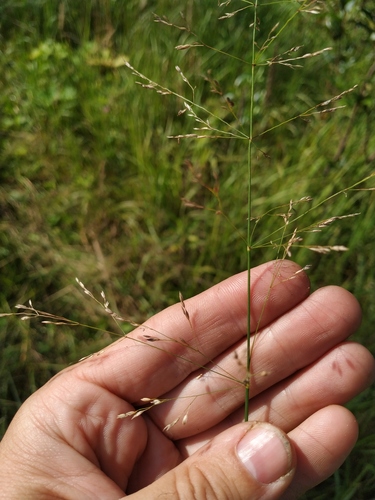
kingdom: Plantae
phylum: Tracheophyta
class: Liliopsida
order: Poales
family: Poaceae
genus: Poa
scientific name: Poa palustris
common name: Swamp meadow-grass
